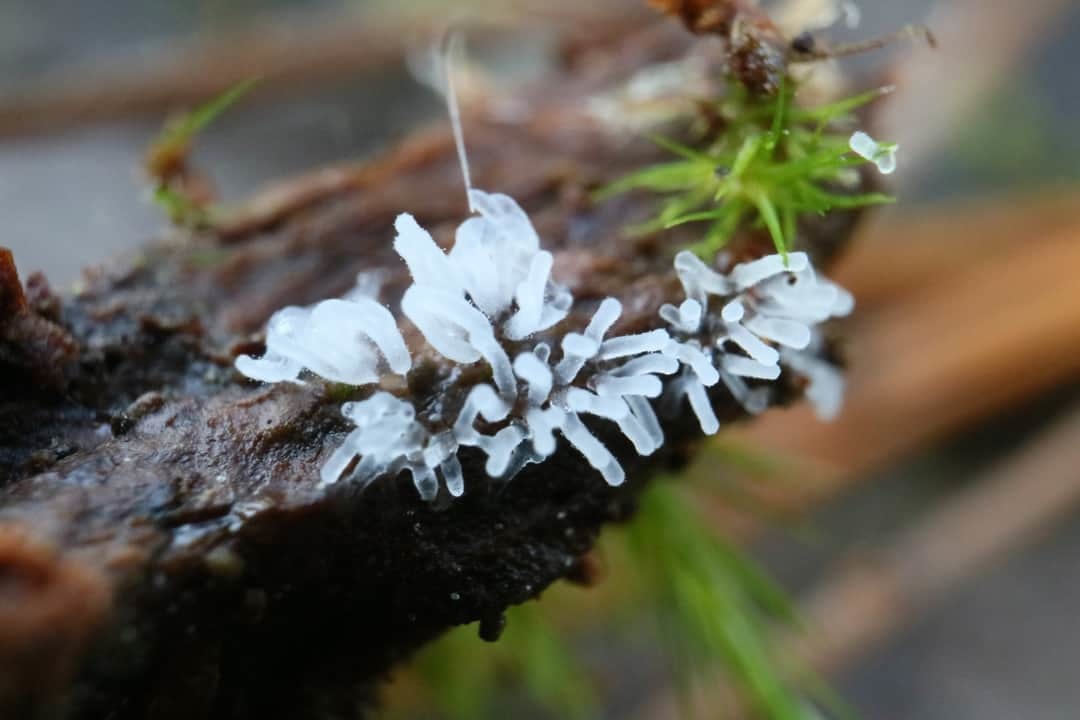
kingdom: Protozoa
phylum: Mycetozoa
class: Protosteliomycetes
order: Ceratiomyxales
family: Ceratiomyxaceae
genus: Ceratiomyxa
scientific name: Ceratiomyxa fruticulosa
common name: Honeycomb coral slime mold
